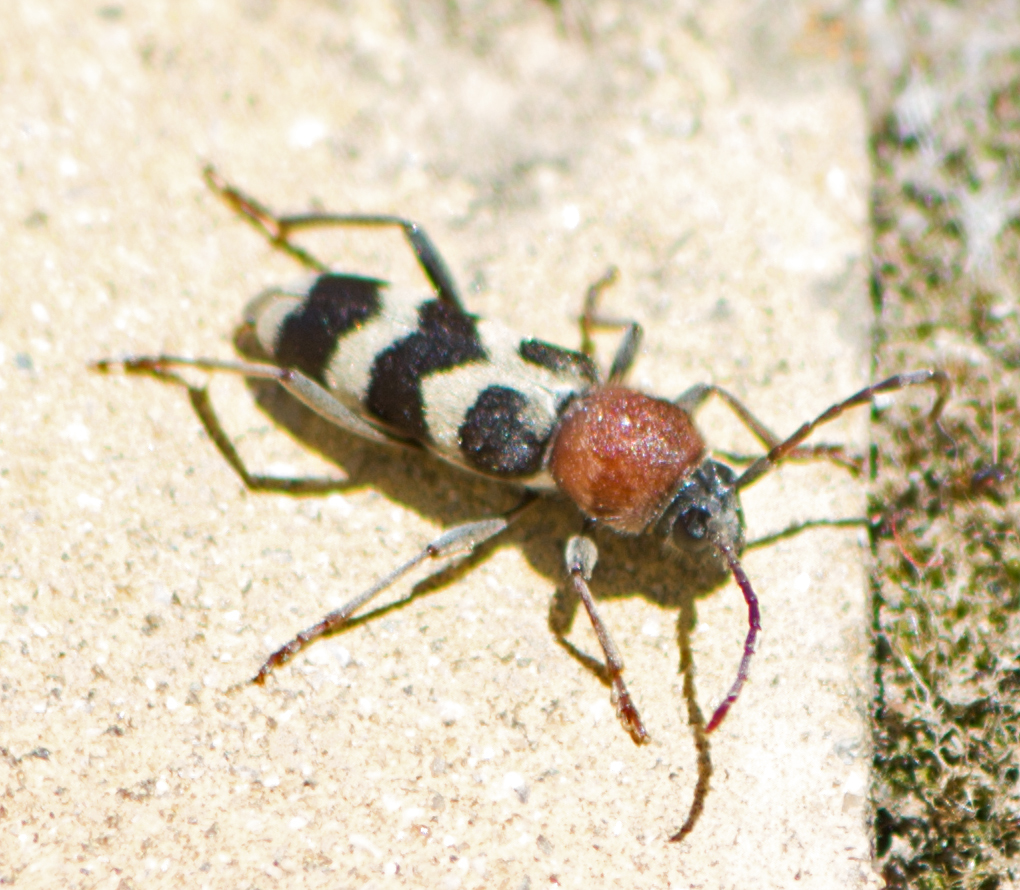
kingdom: Animalia
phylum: Arthropoda
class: Insecta
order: Coleoptera
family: Cerambycidae
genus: Chlorophorus
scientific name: Chlorophorus hungaricus
